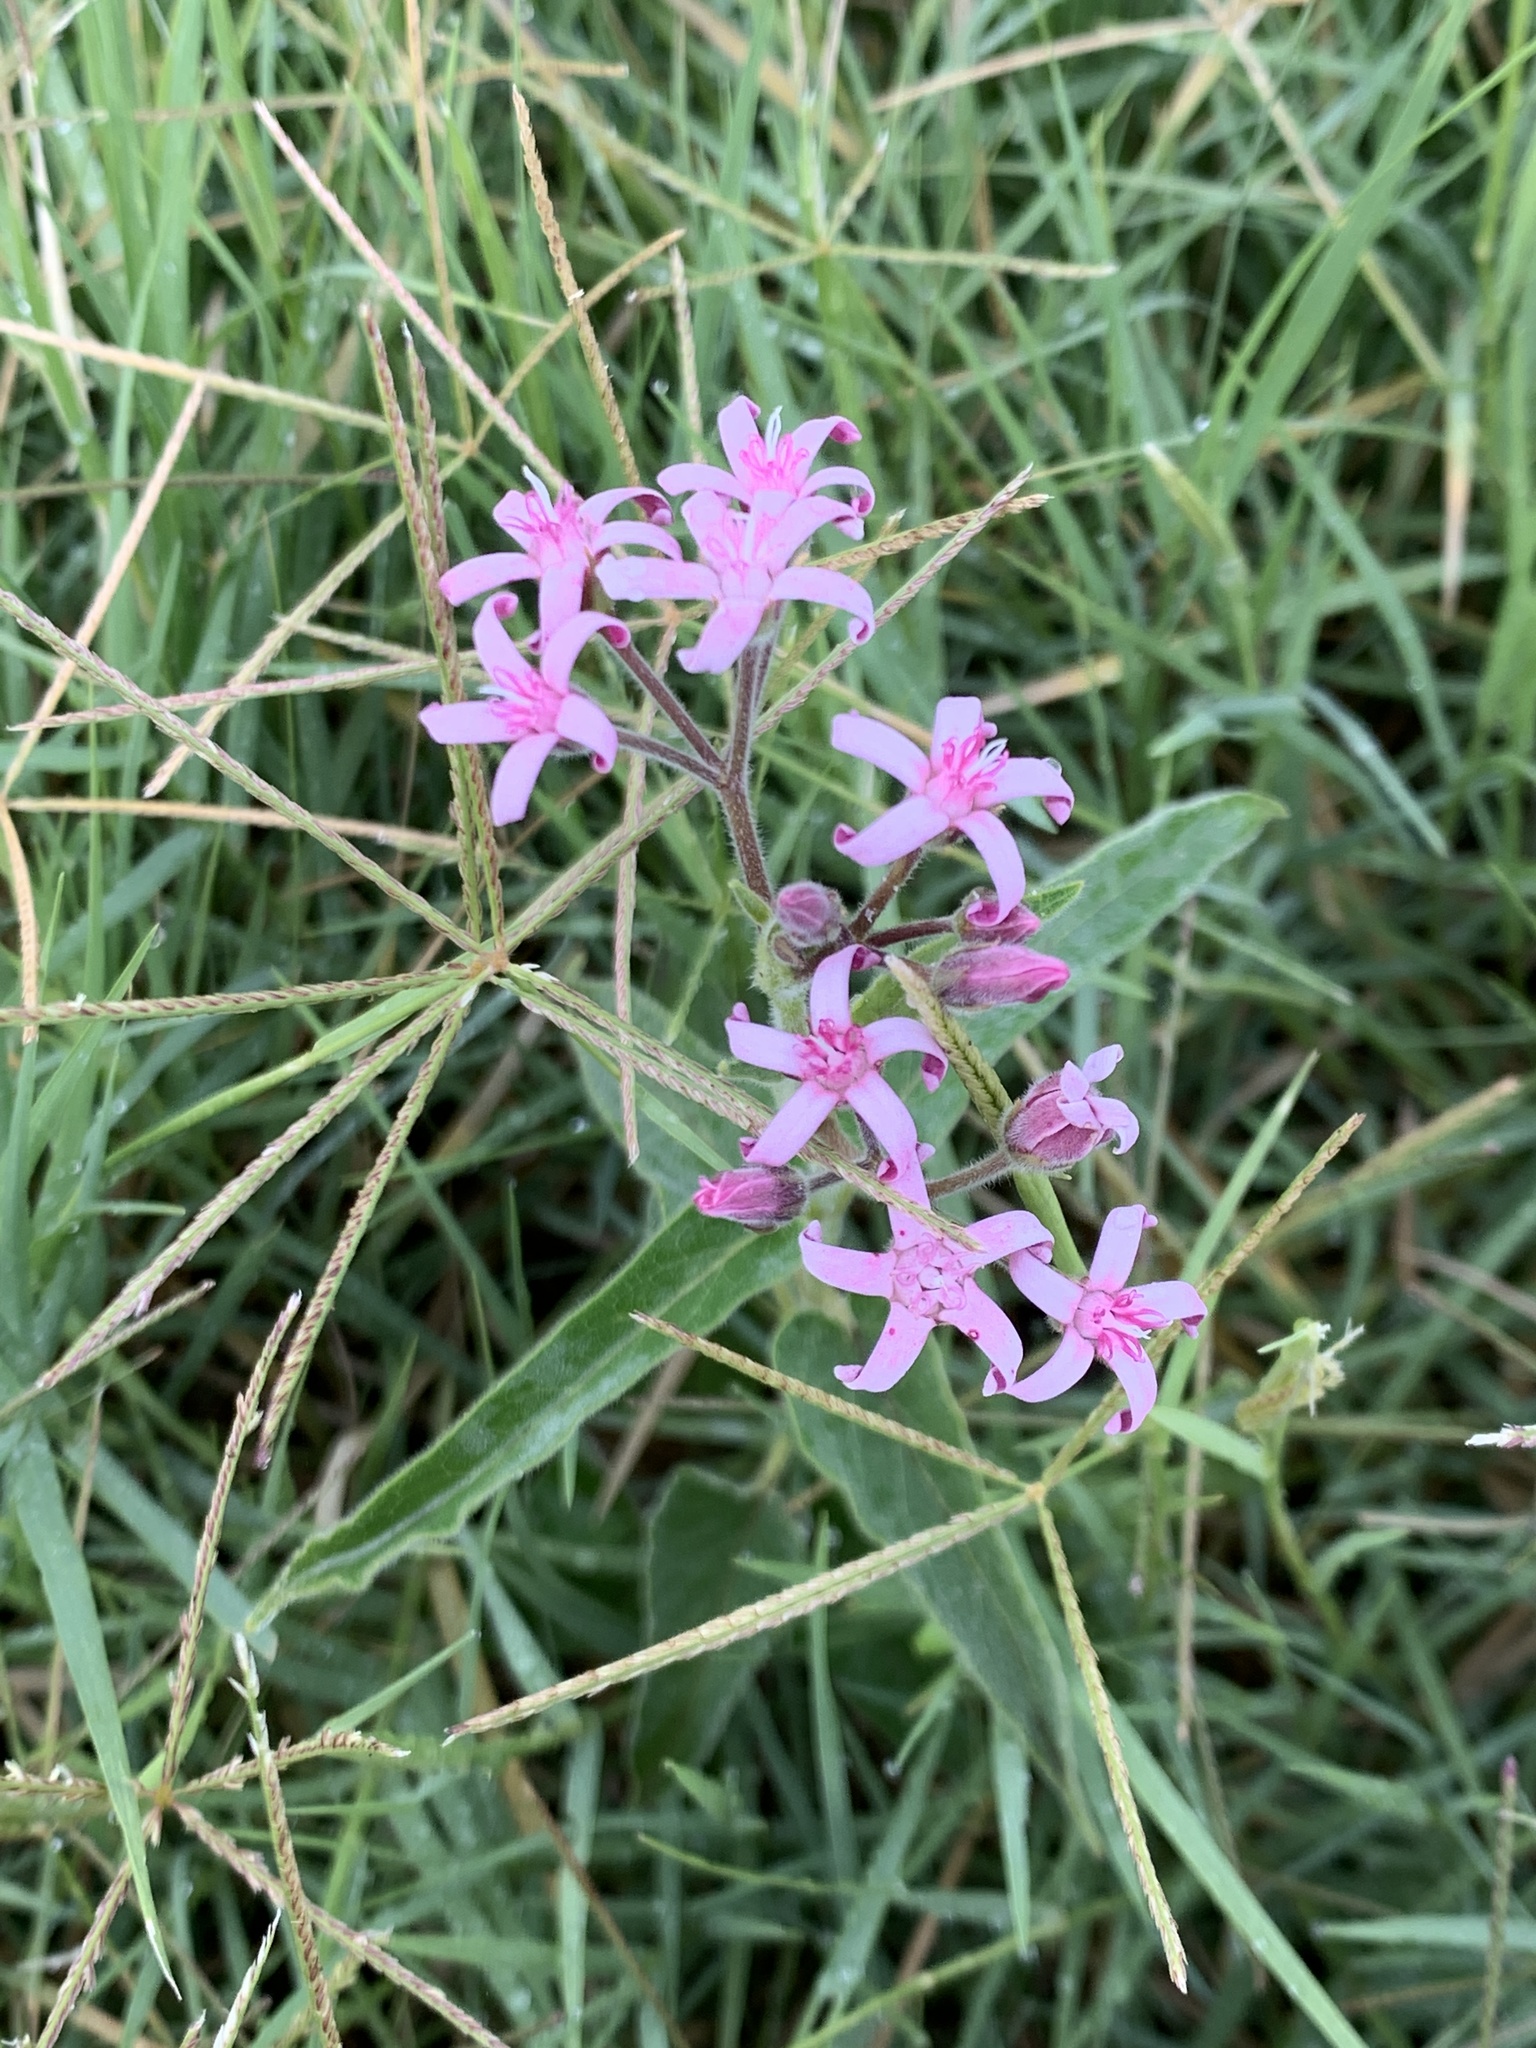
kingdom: Plantae
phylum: Tracheophyta
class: Magnoliopsida
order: Gentianales
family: Apocynaceae
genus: Oxypetalum
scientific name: Oxypetalum solanoides
